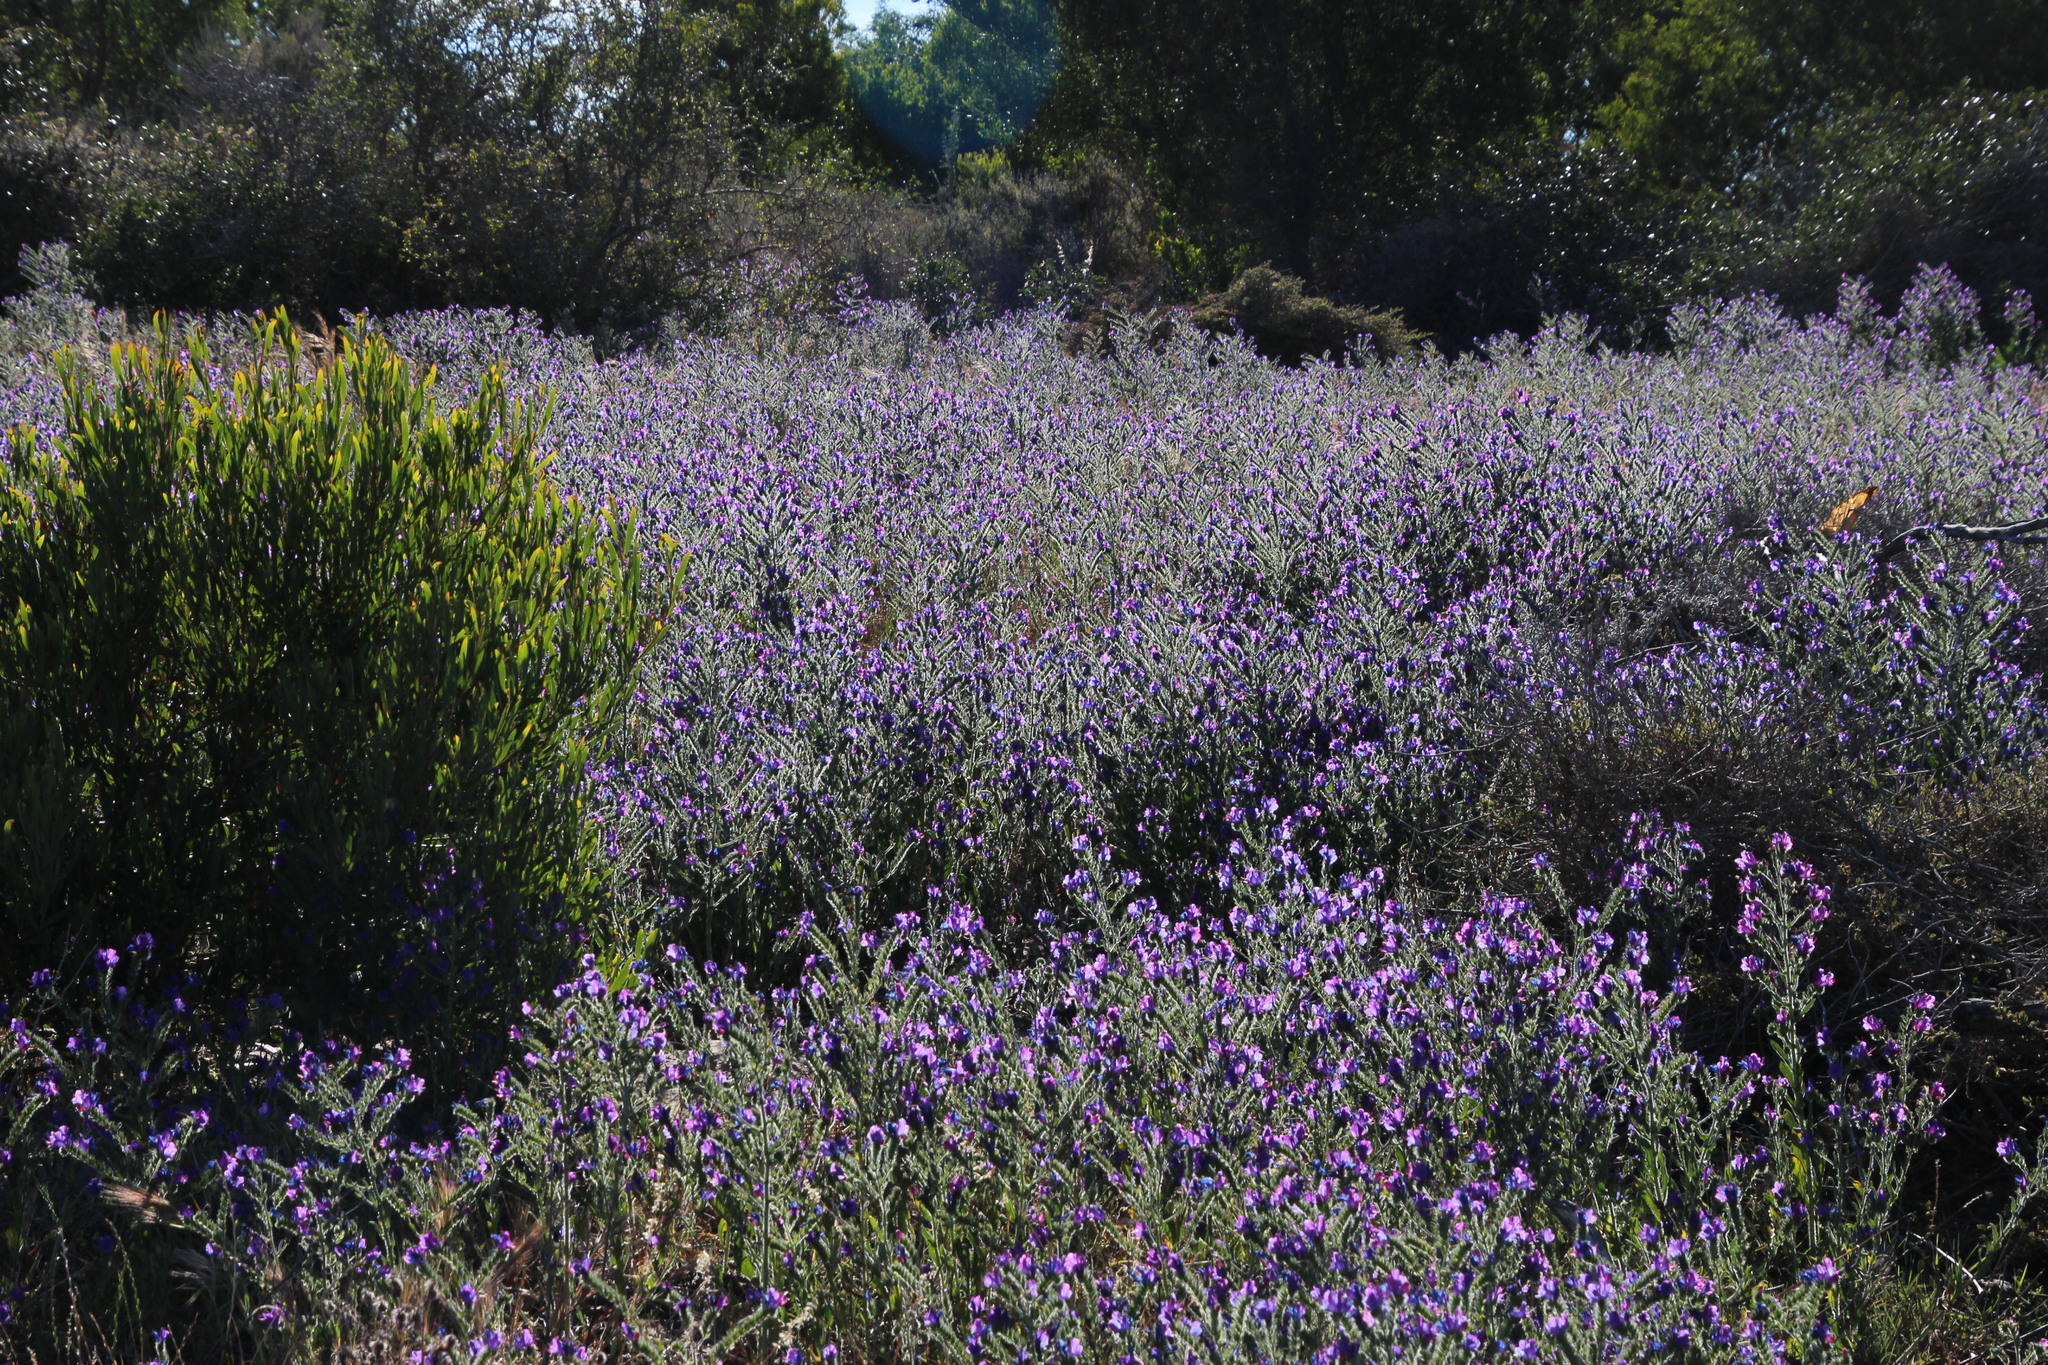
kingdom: Plantae
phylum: Tracheophyta
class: Magnoliopsida
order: Boraginales
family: Boraginaceae
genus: Echium
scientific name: Echium plantagineum
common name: Purple viper's-bugloss
